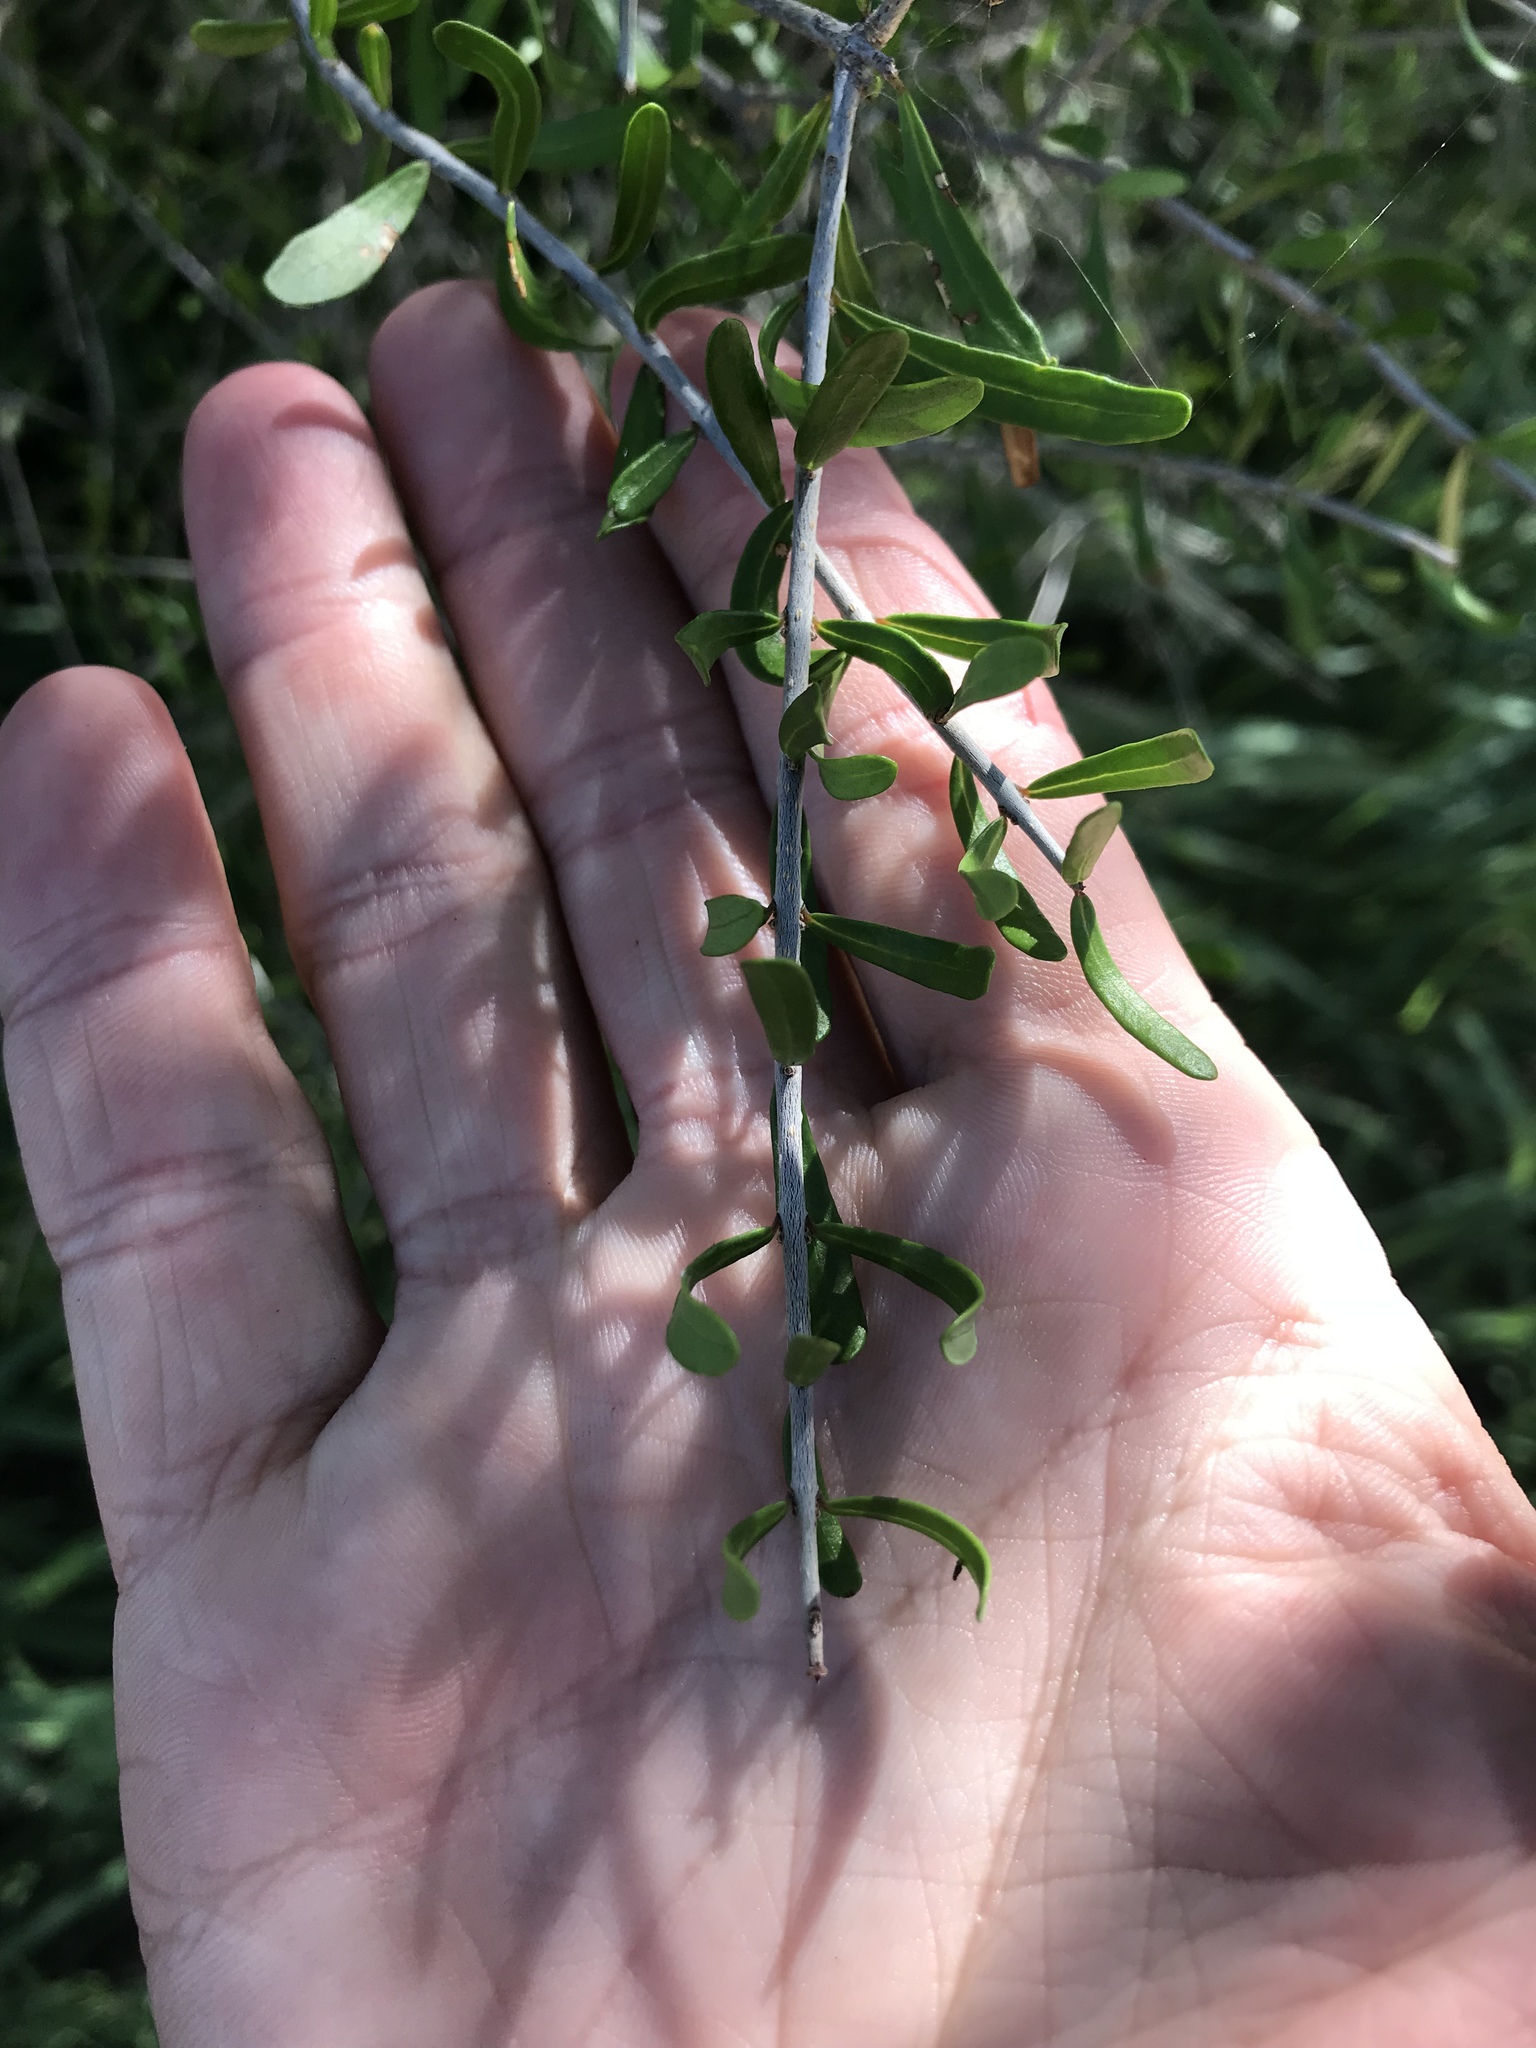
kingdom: Plantae
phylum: Tracheophyta
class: Magnoliopsida
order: Lamiales
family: Oleaceae
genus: Forestiera
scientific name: Forestiera angustifolia
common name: Elbowbush
